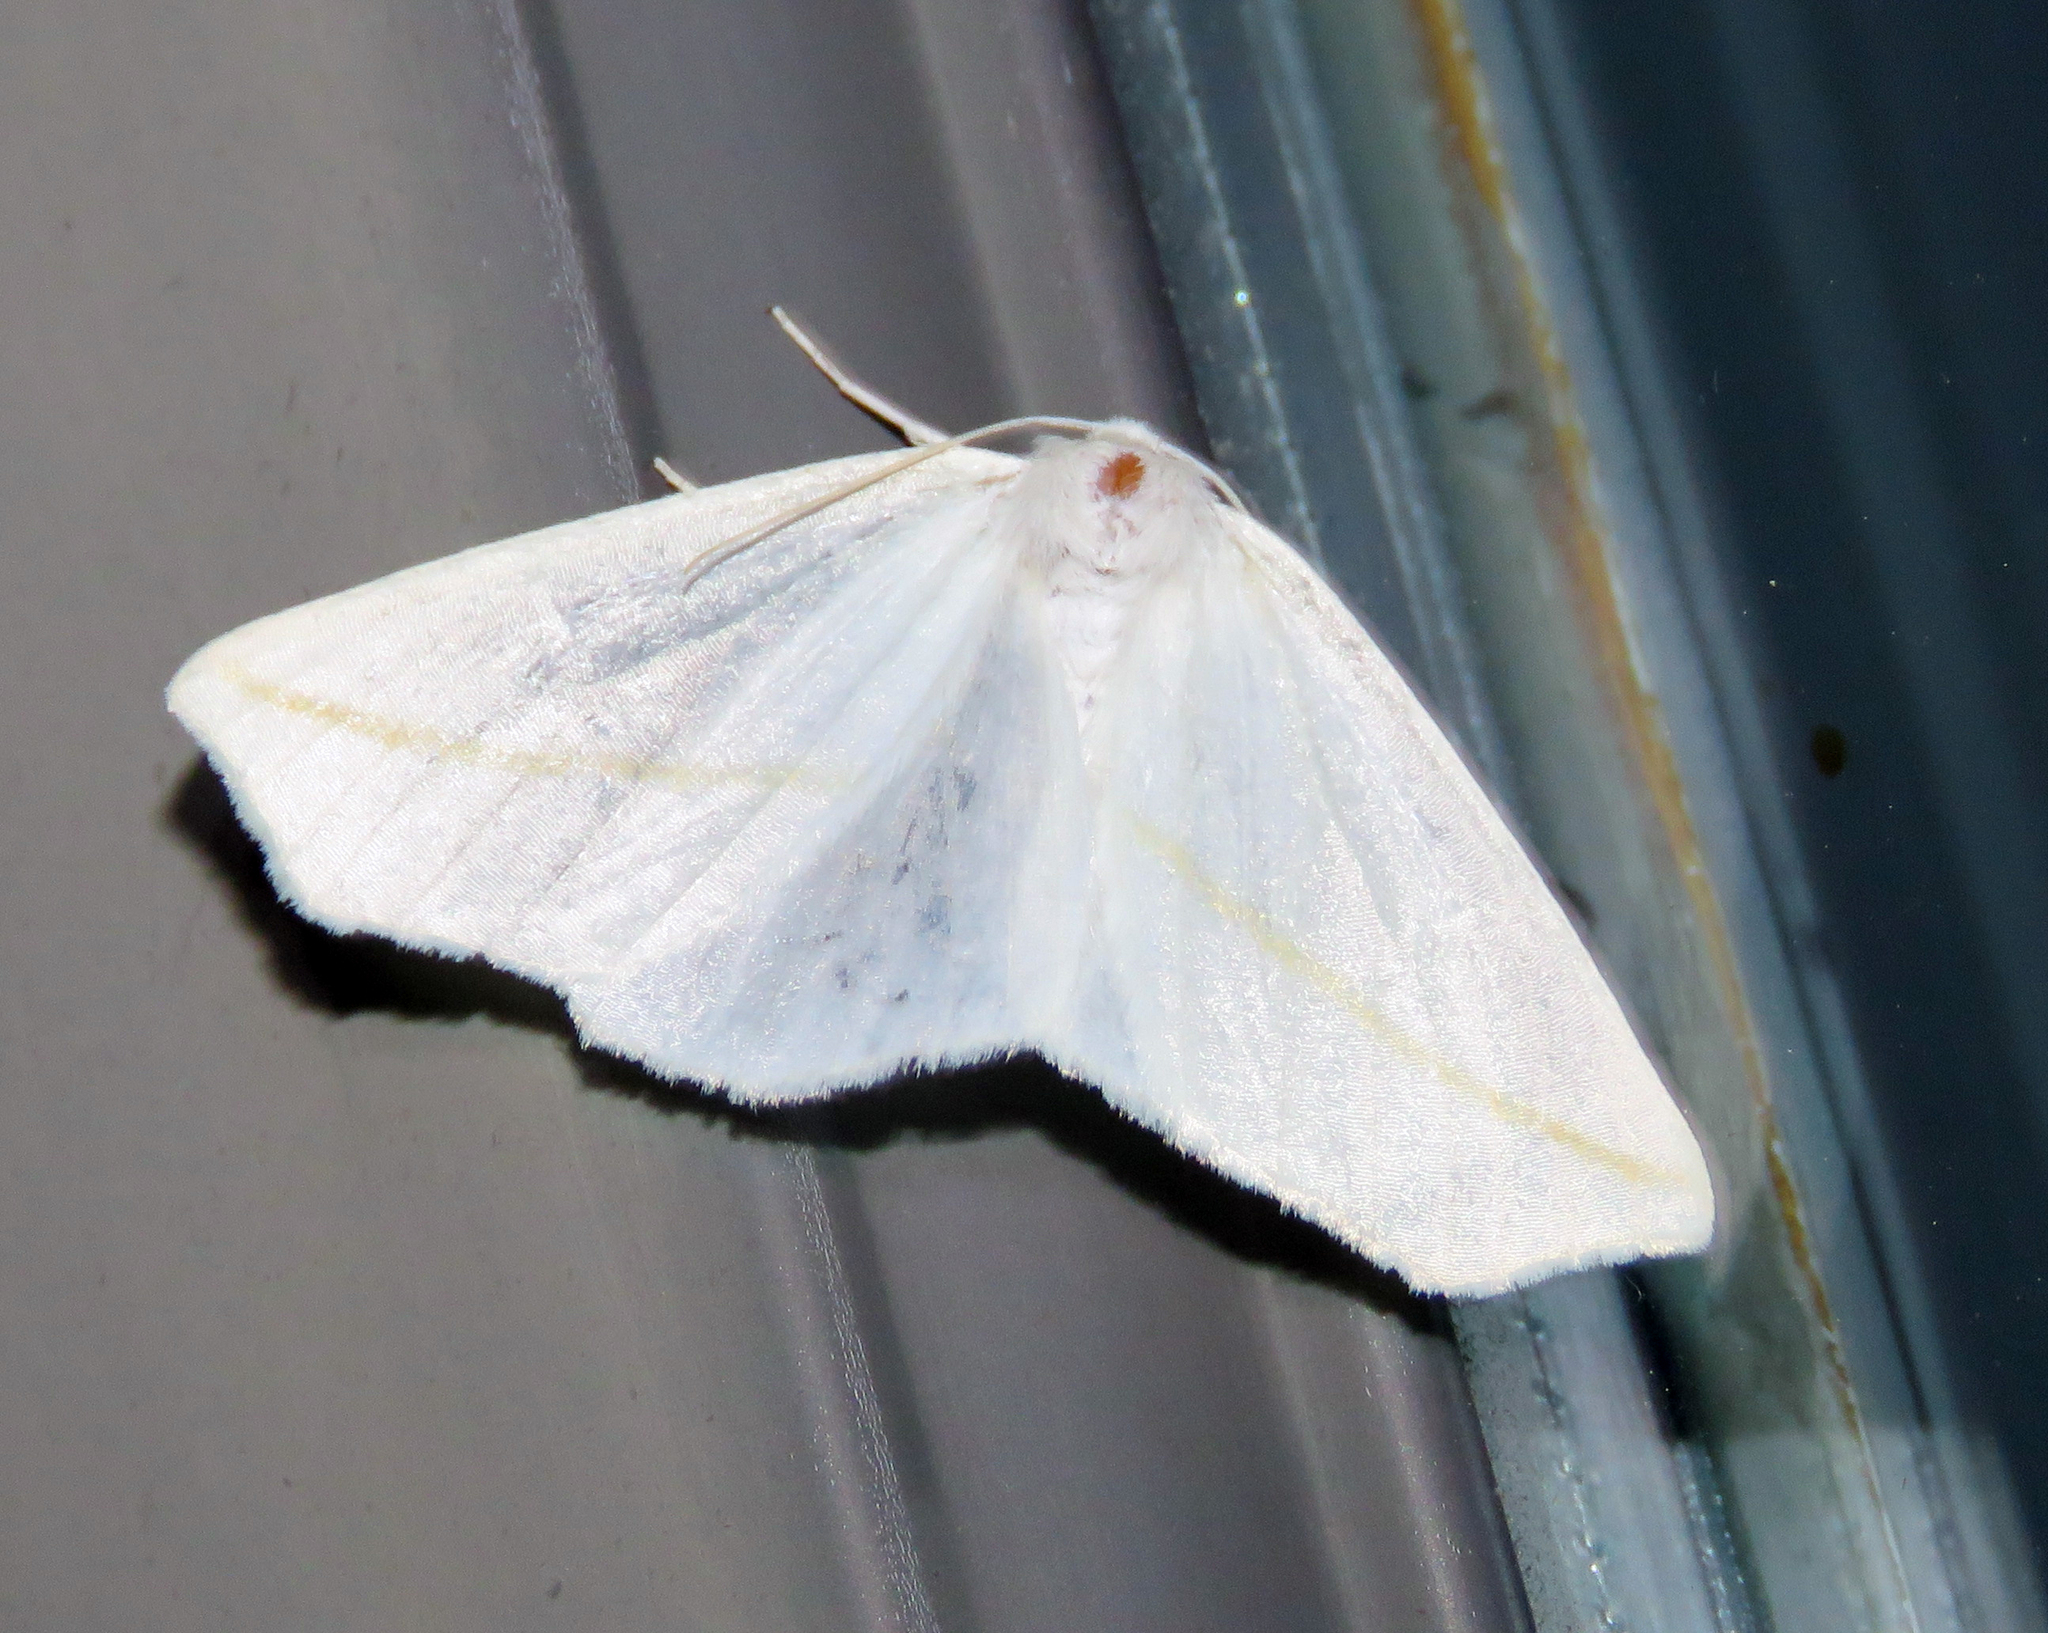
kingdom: Animalia
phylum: Arthropoda
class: Insecta
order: Lepidoptera
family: Geometridae
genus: Tetracis
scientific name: Tetracis cachexiata
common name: White slant-line
